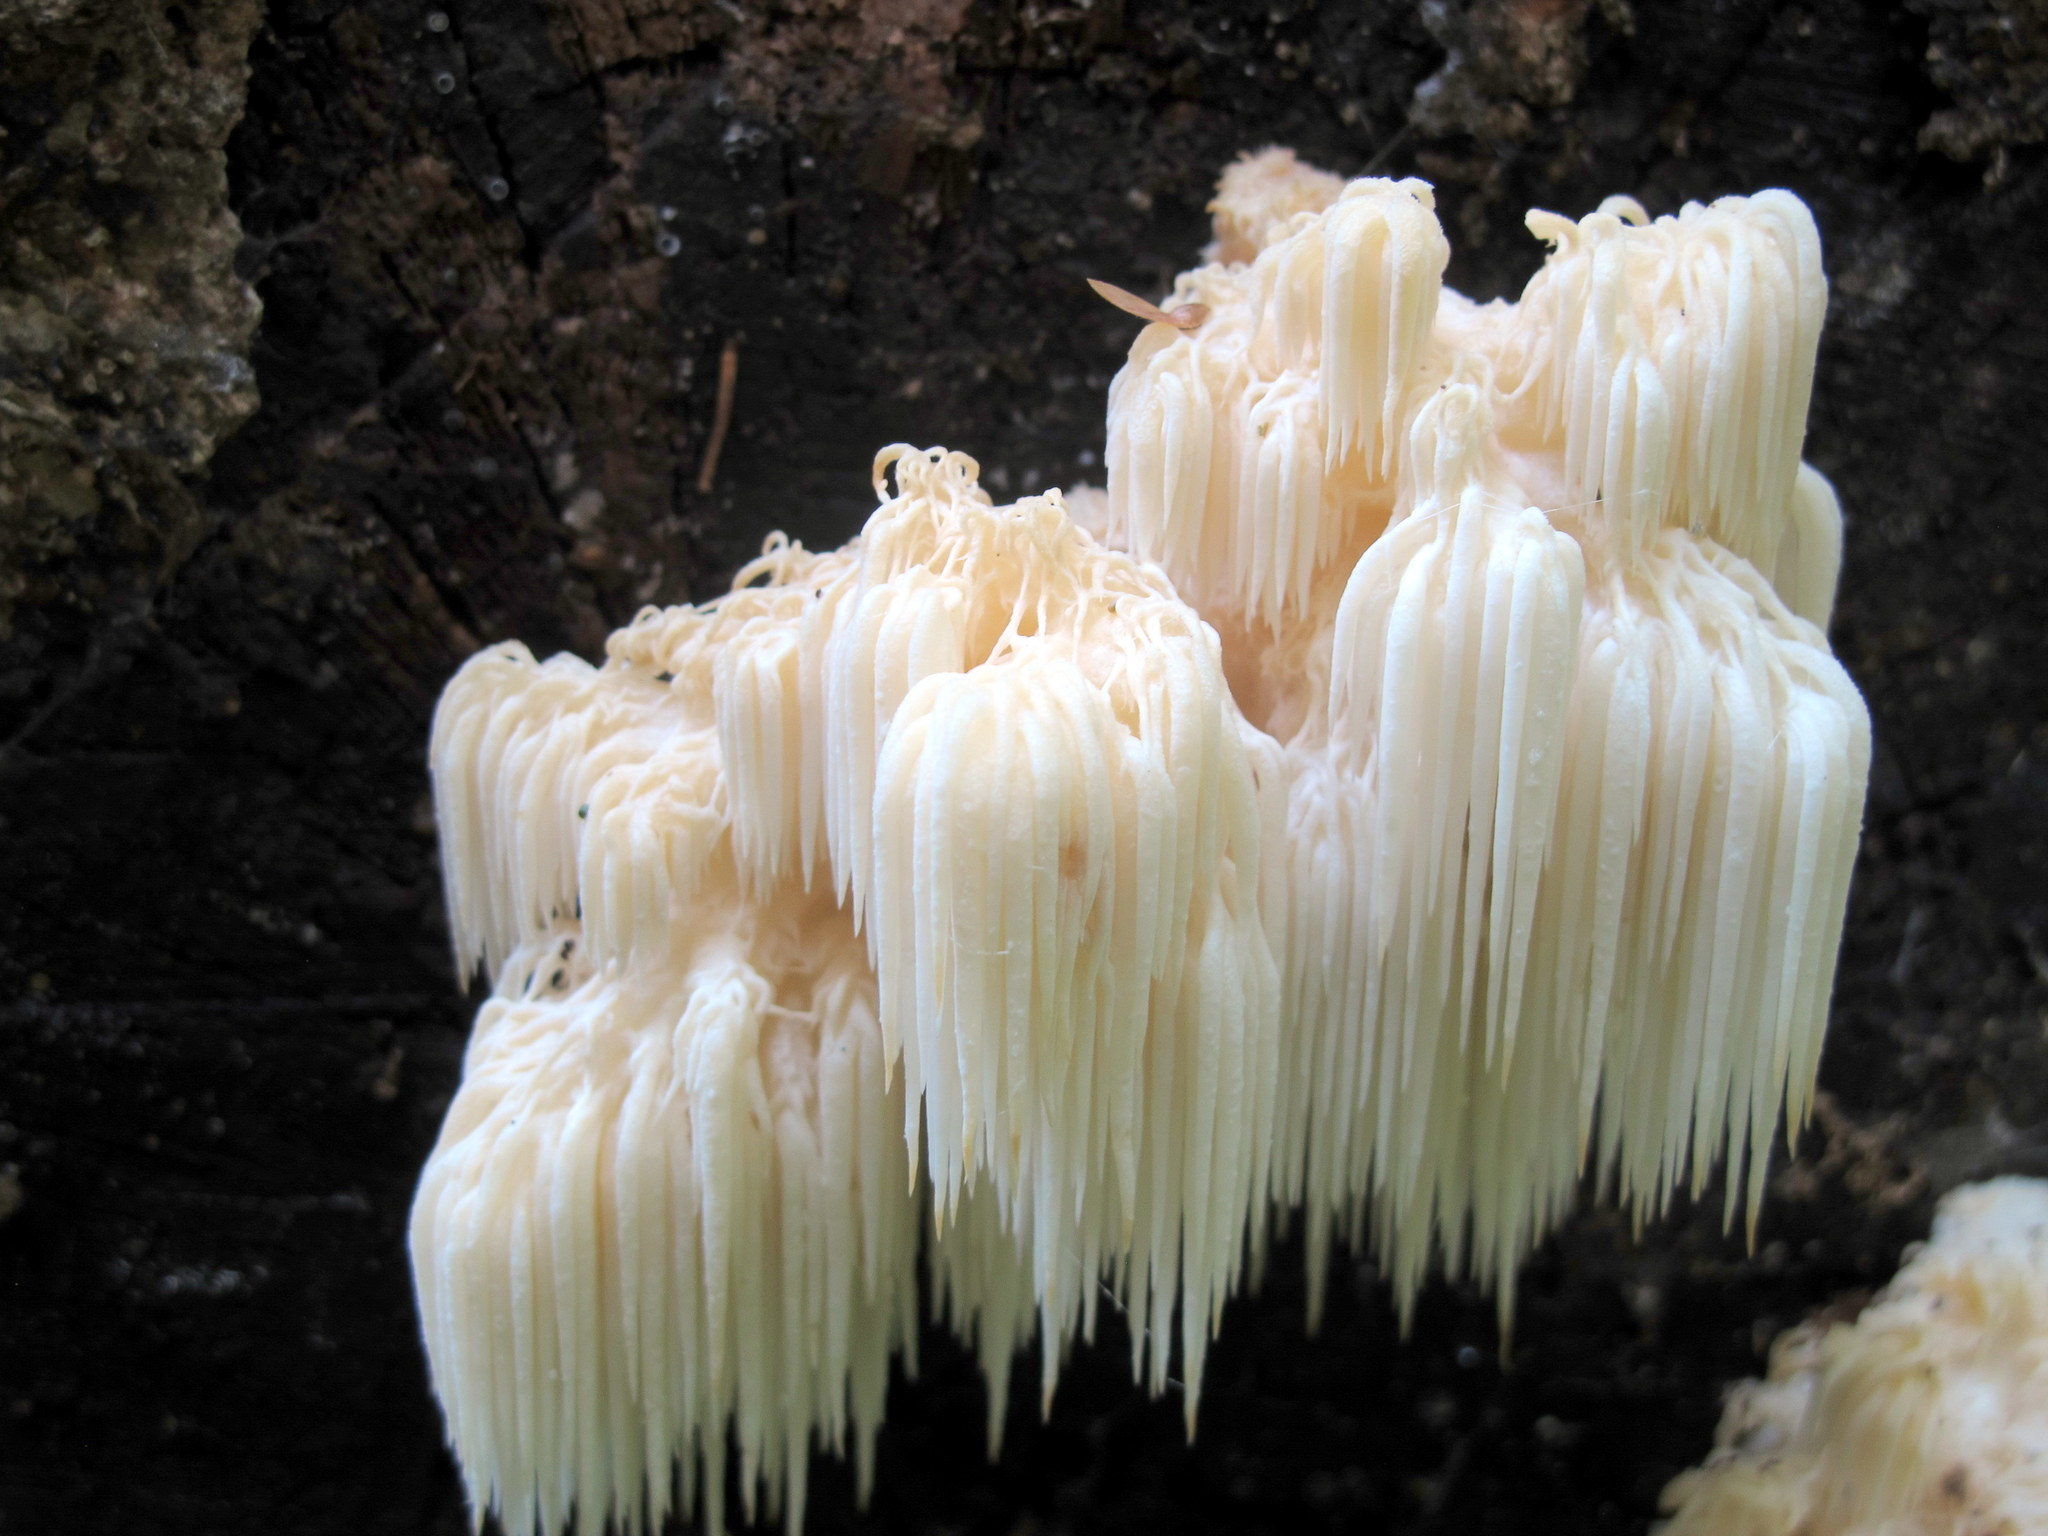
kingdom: Fungi
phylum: Basidiomycota
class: Agaricomycetes
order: Russulales
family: Hericiaceae
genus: Hericium
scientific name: Hericium americanum
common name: Bear's head tooth
